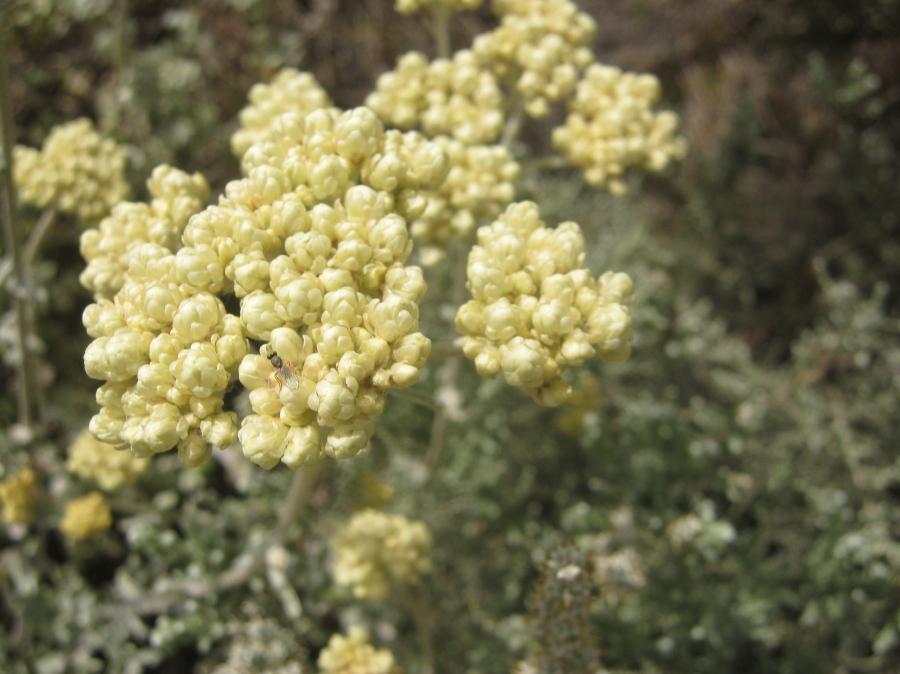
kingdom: Plantae
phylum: Tracheophyta
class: Magnoliopsida
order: Asterales
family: Asteraceae
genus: Helichrysum
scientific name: Helichrysum patulum
